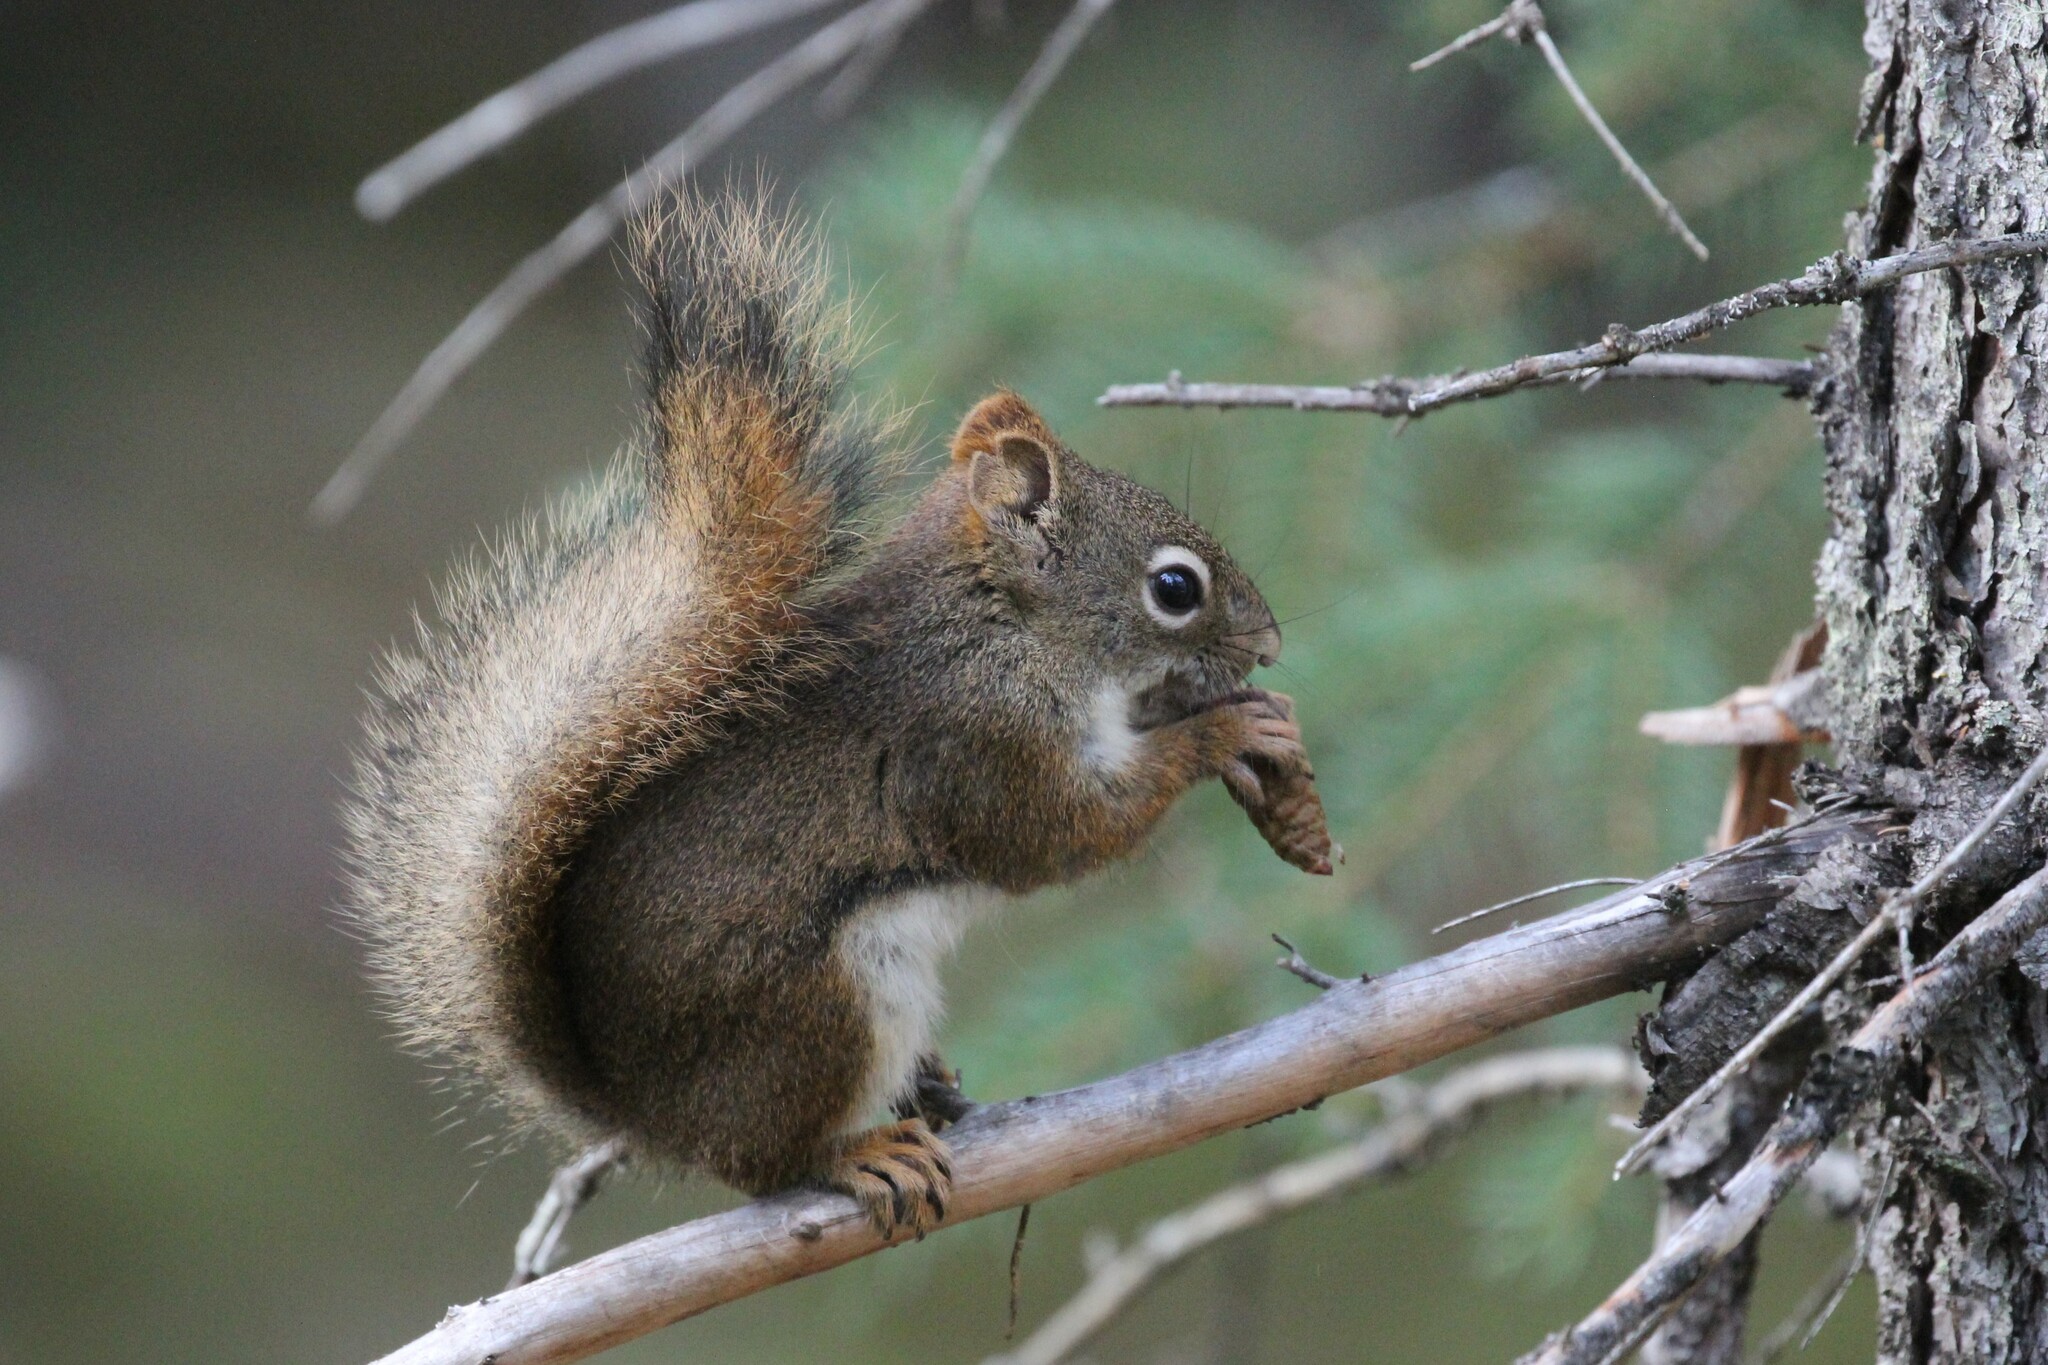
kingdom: Animalia
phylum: Chordata
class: Mammalia
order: Rodentia
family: Sciuridae
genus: Tamiasciurus
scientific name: Tamiasciurus hudsonicus
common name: Red squirrel
